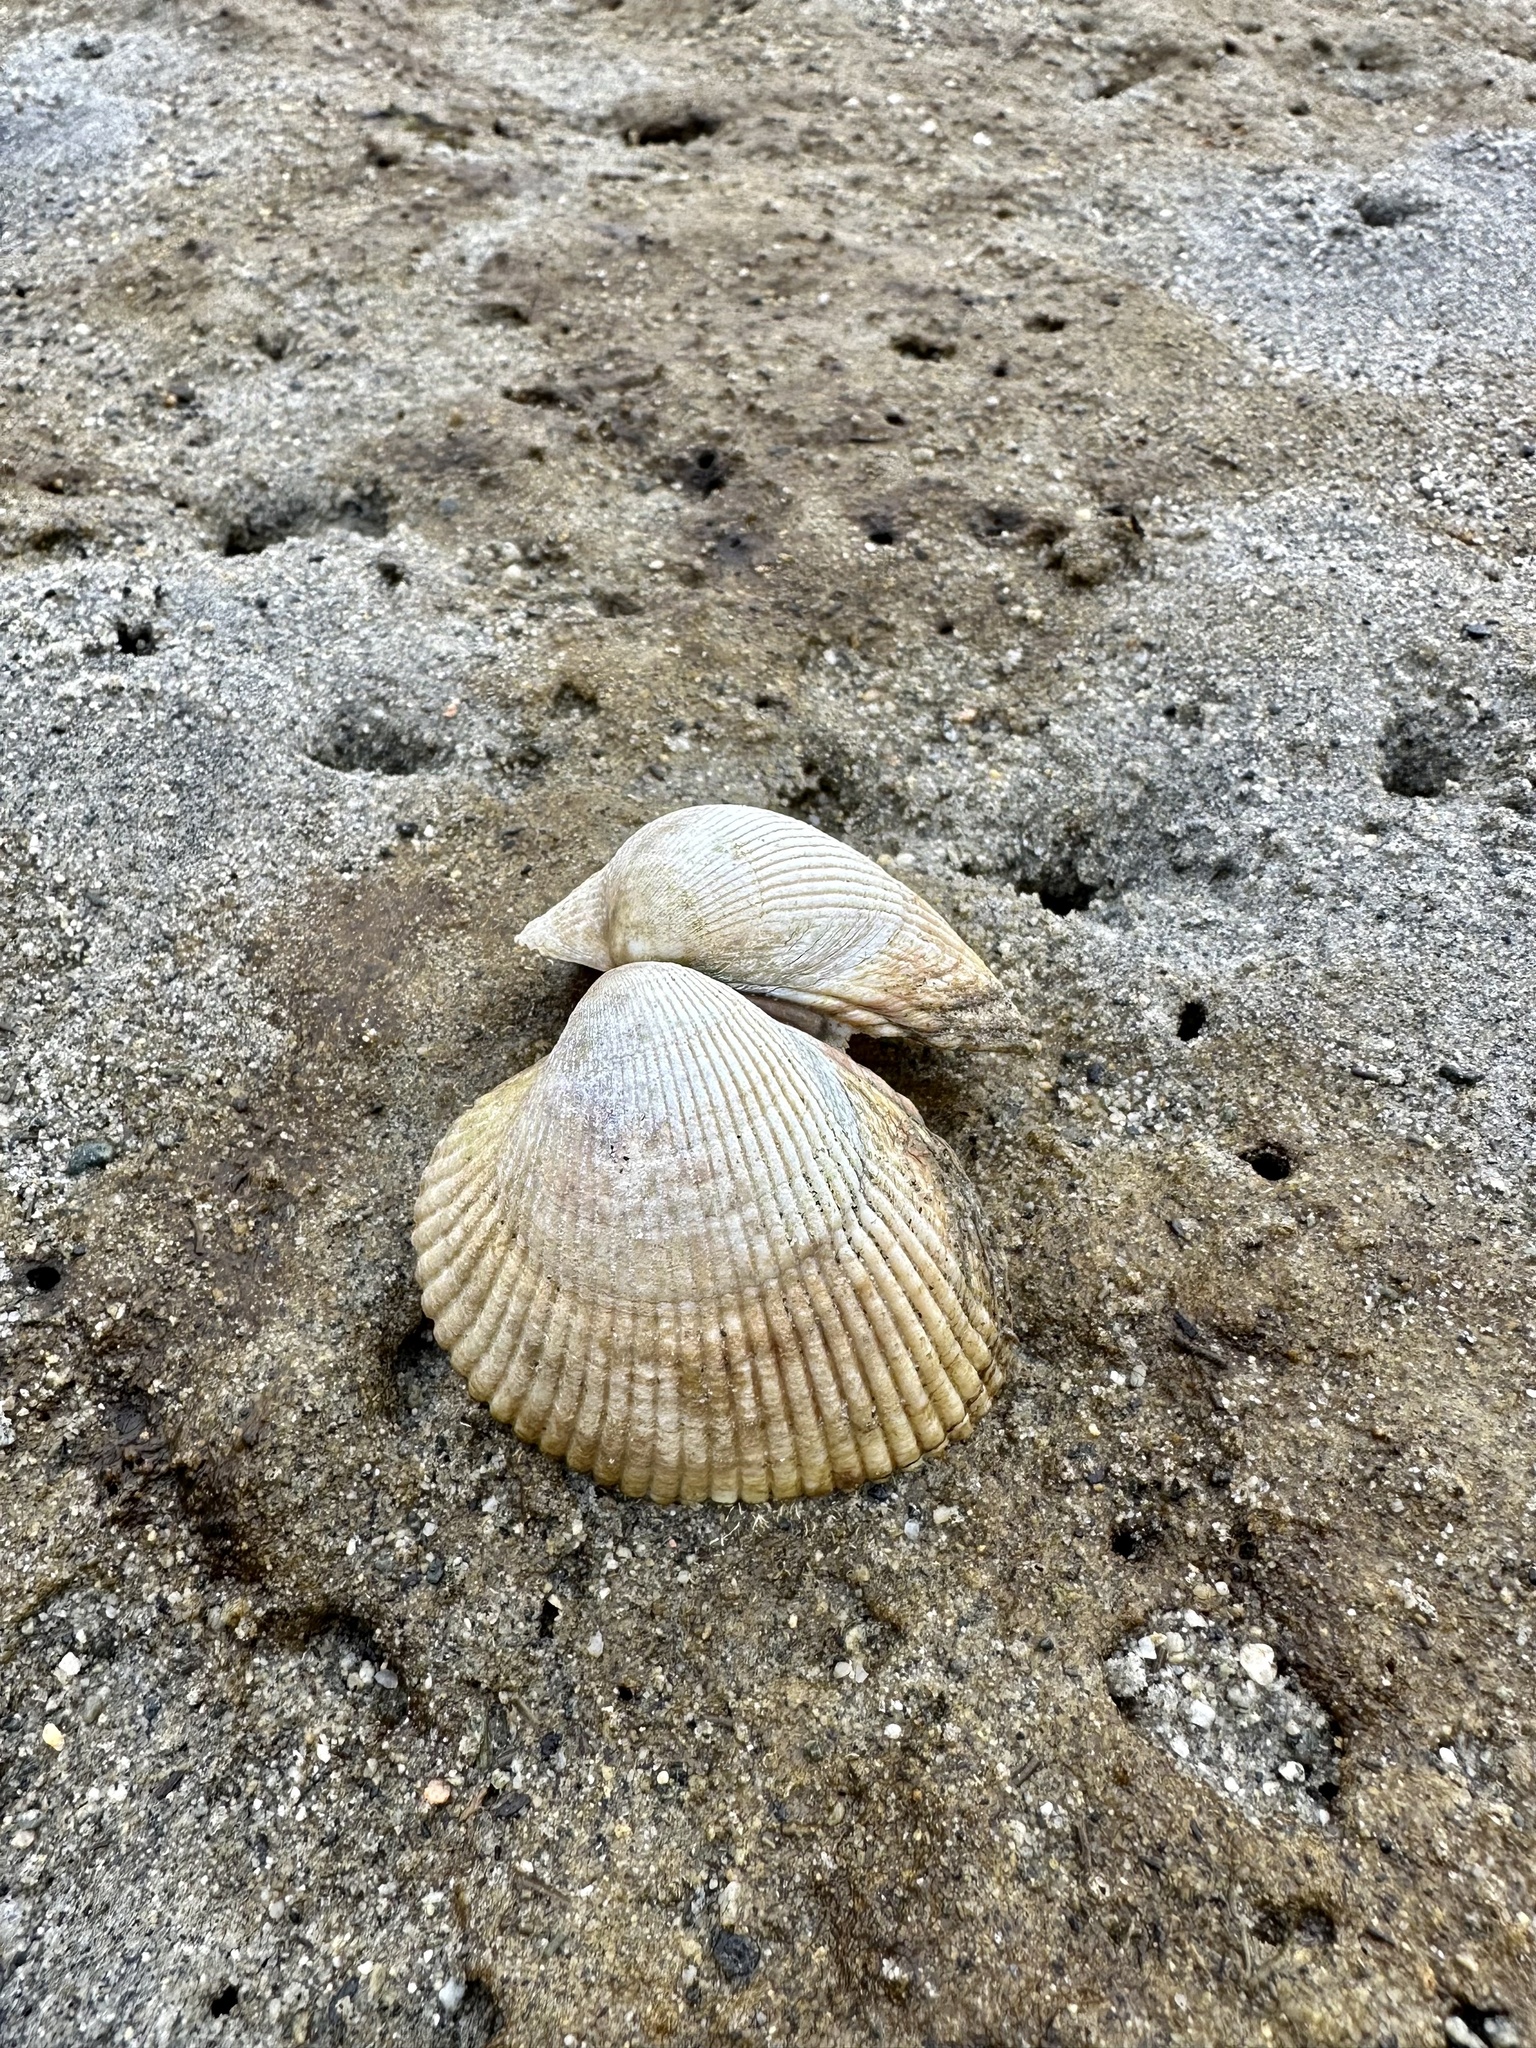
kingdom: Animalia
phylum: Mollusca
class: Bivalvia
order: Cardiida
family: Cardiidae
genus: Clinocardium
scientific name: Clinocardium nuttallii
